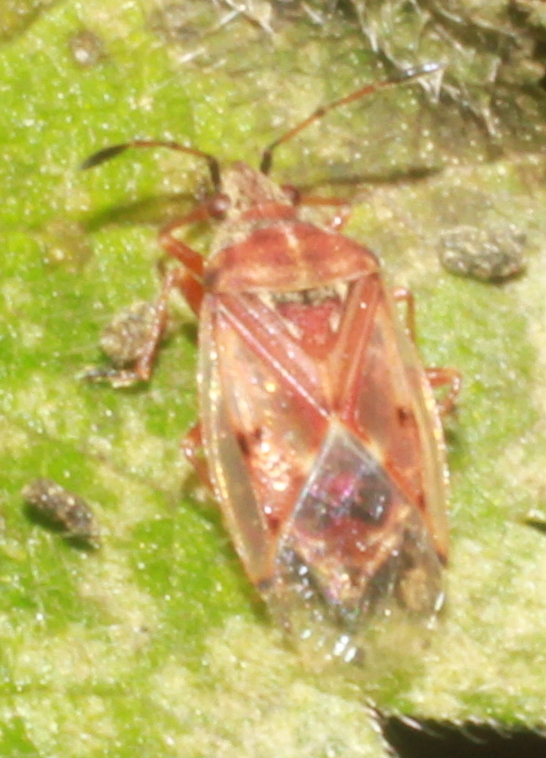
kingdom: Animalia
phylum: Arthropoda
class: Insecta
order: Hemiptera
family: Lygaeidae
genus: Kleidocerys
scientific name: Kleidocerys resedae
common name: Birch catkin bug
